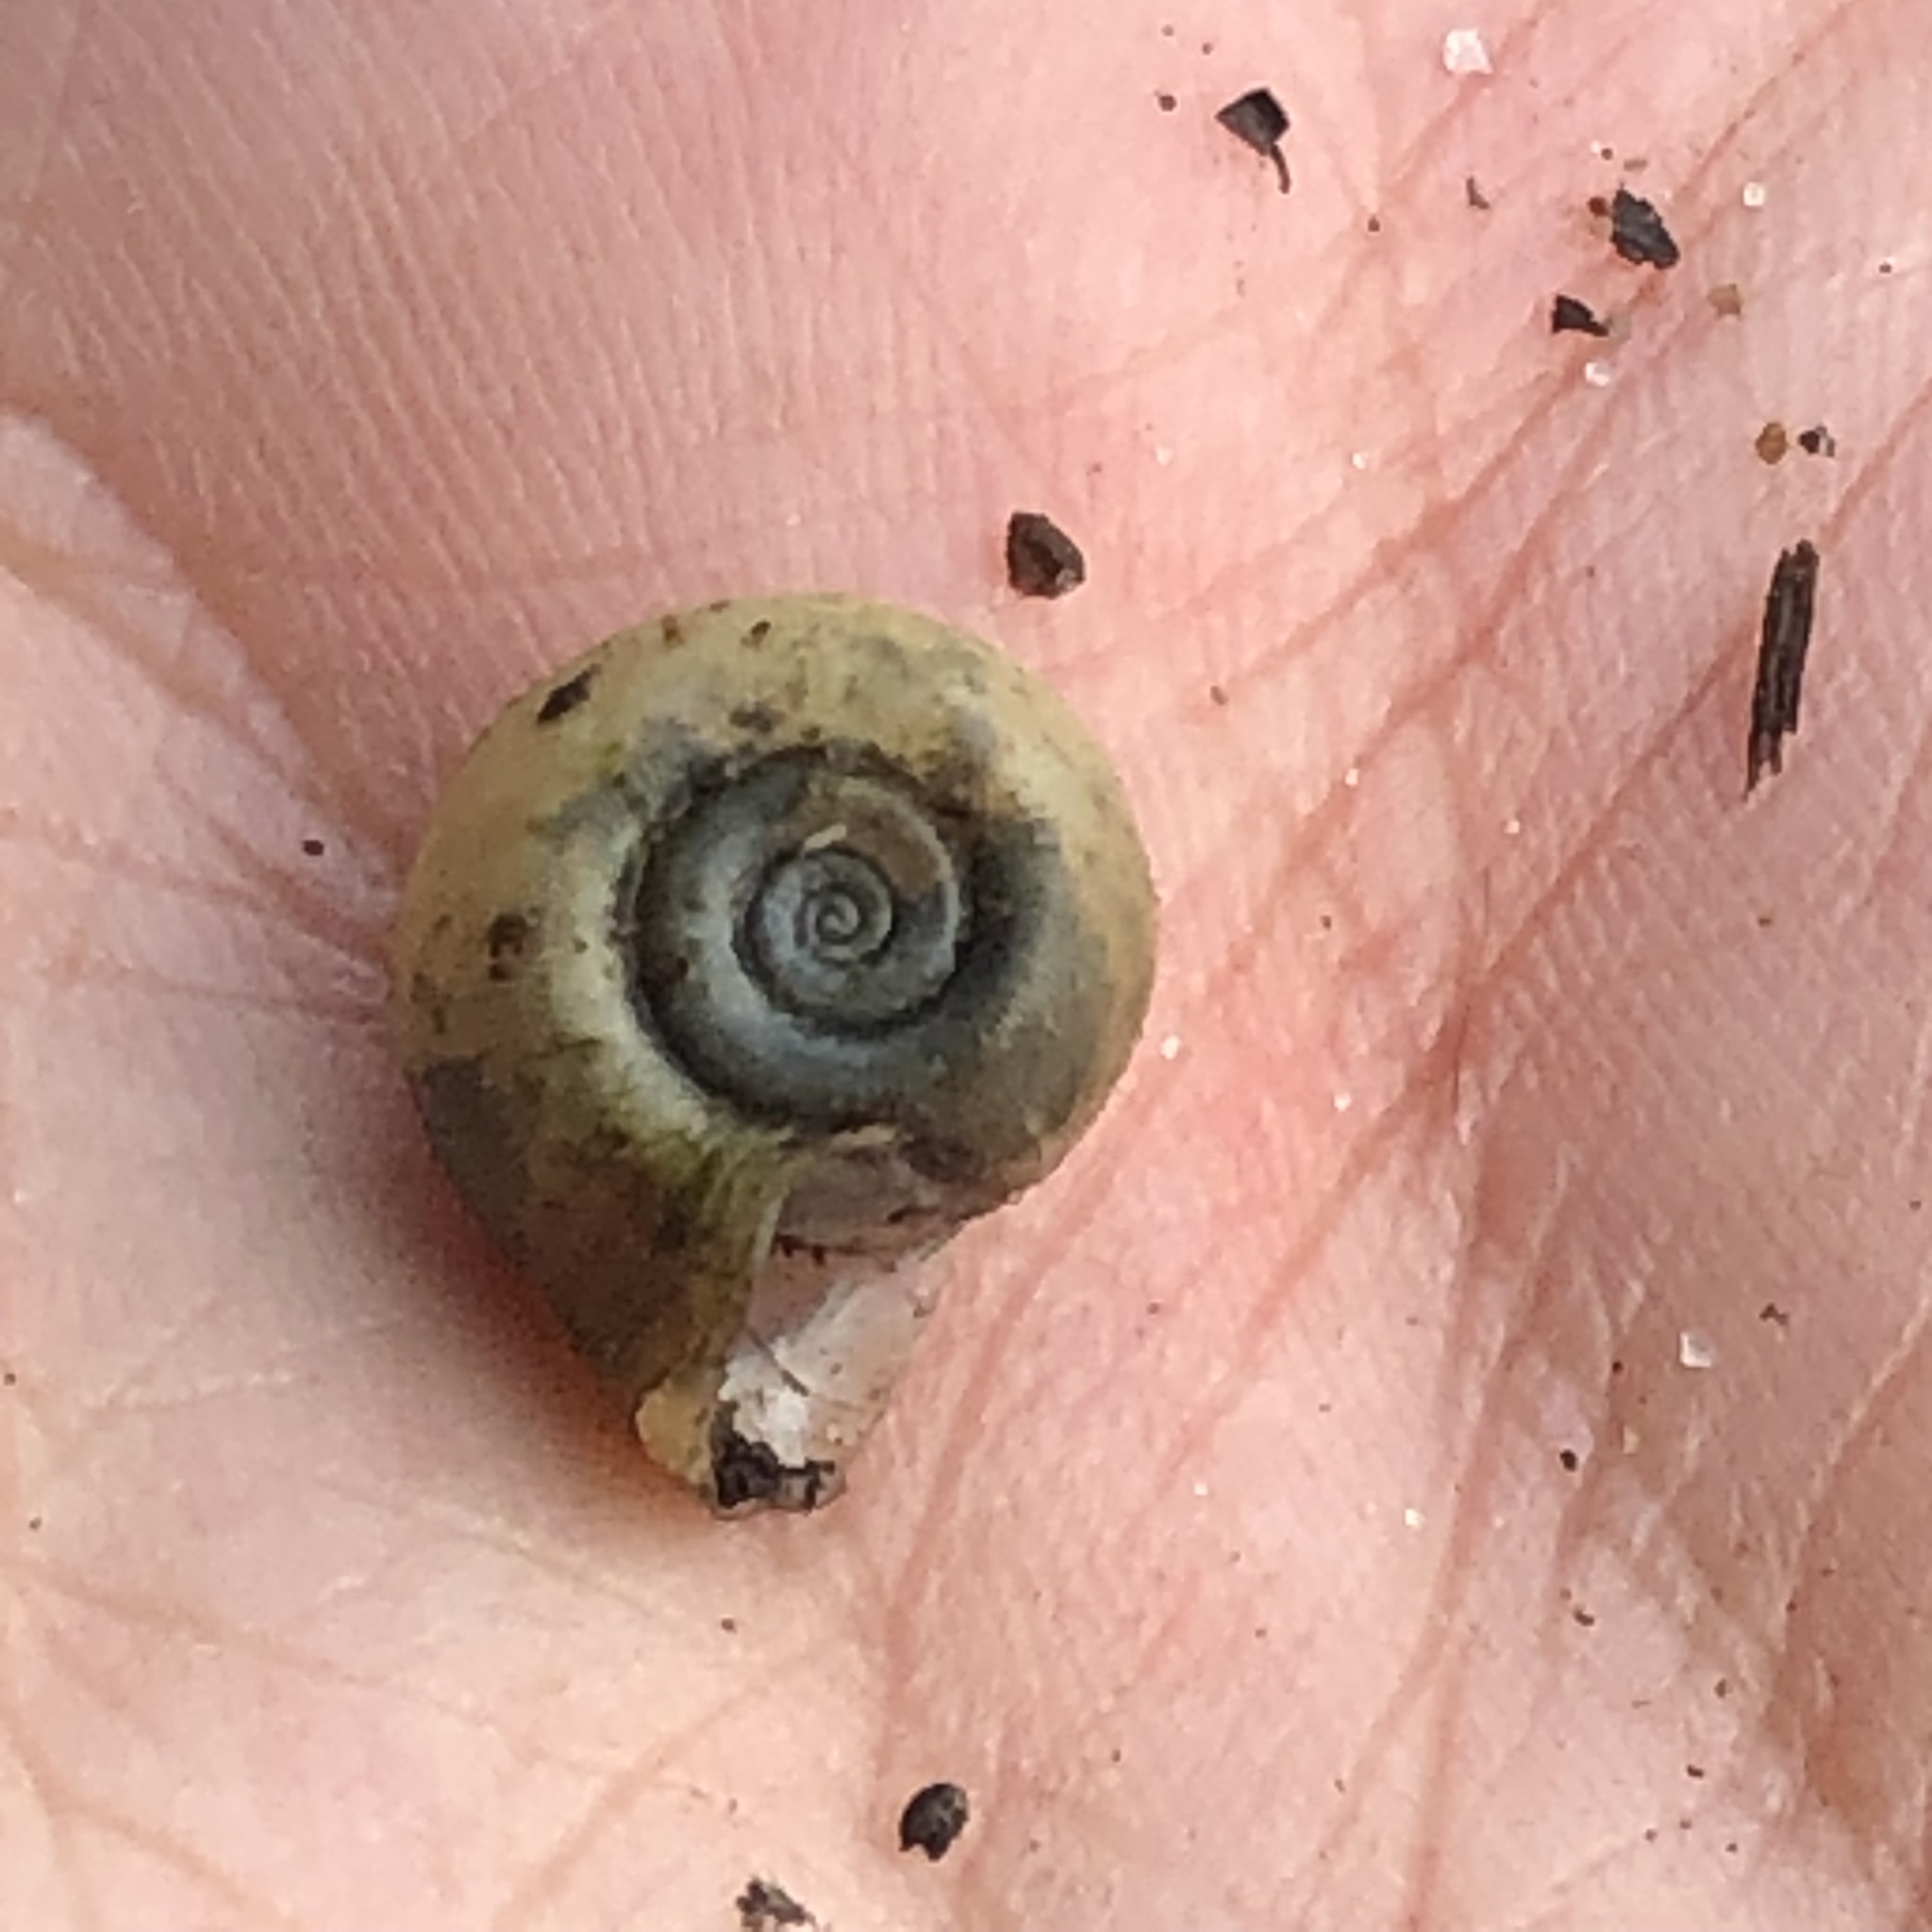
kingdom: Animalia
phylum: Mollusca
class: Gastropoda
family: Planorbidae
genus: Planorbella
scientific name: Planorbella campanulata
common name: Bellmouth ramshorn
